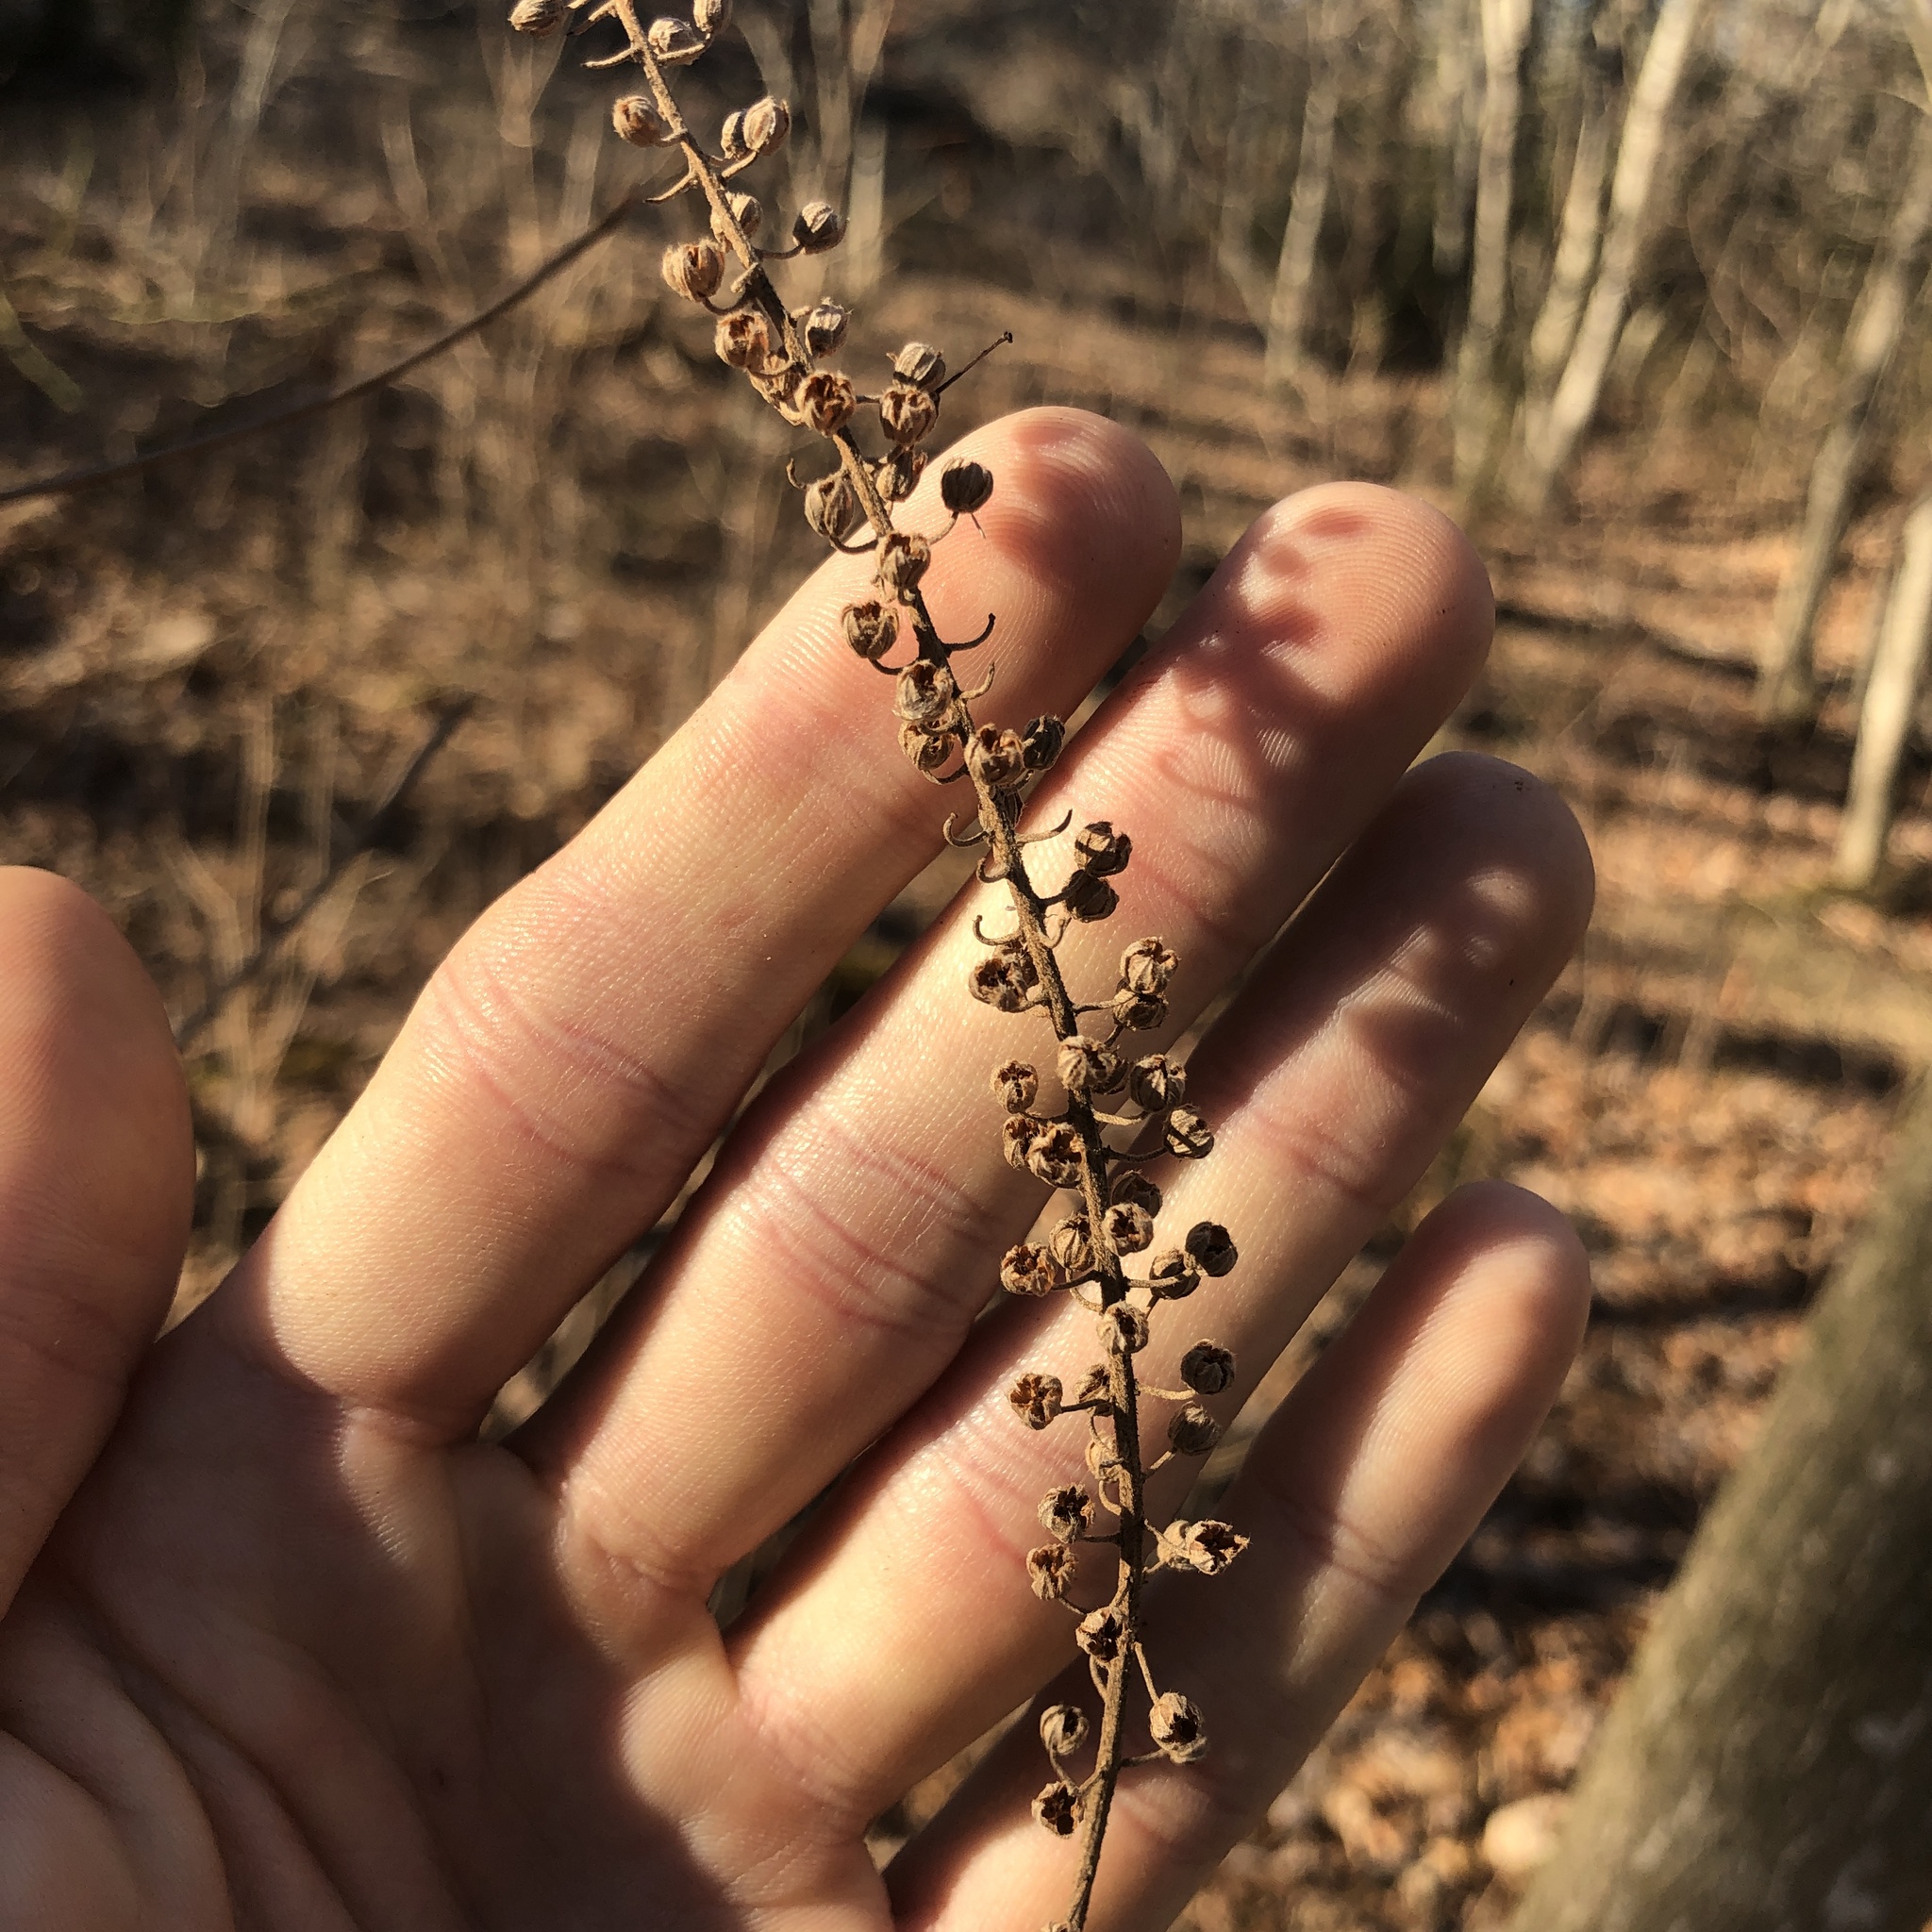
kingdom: Plantae
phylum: Tracheophyta
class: Magnoliopsida
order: Ericales
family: Clethraceae
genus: Clethra
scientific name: Clethra alnifolia
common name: Sweet pepperbush
